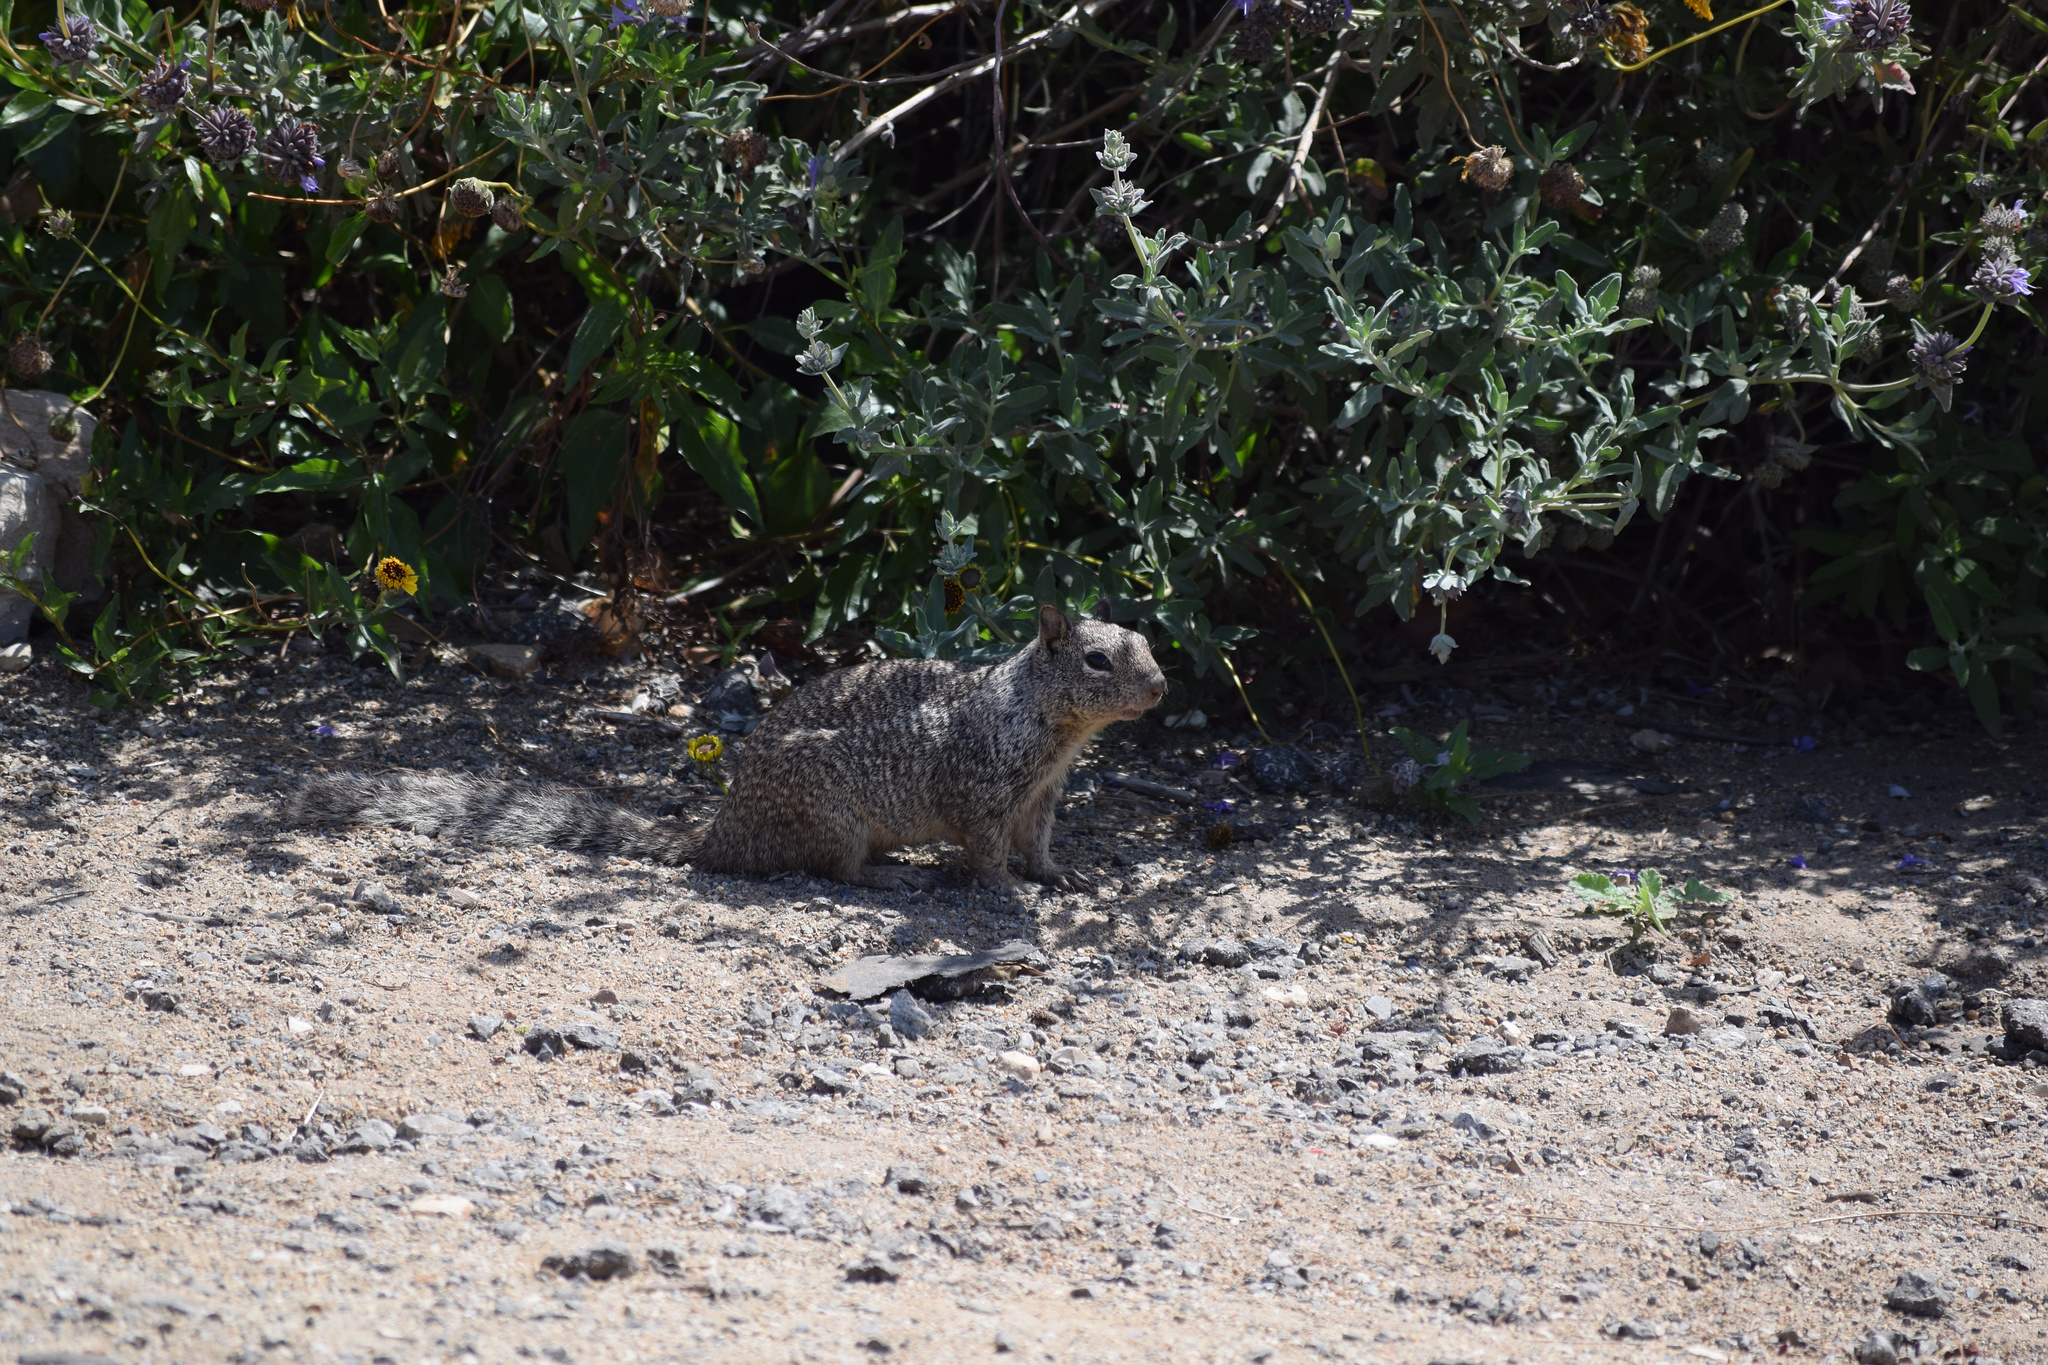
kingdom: Animalia
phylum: Chordata
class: Mammalia
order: Rodentia
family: Sciuridae
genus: Otospermophilus
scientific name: Otospermophilus beecheyi
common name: California ground squirrel
